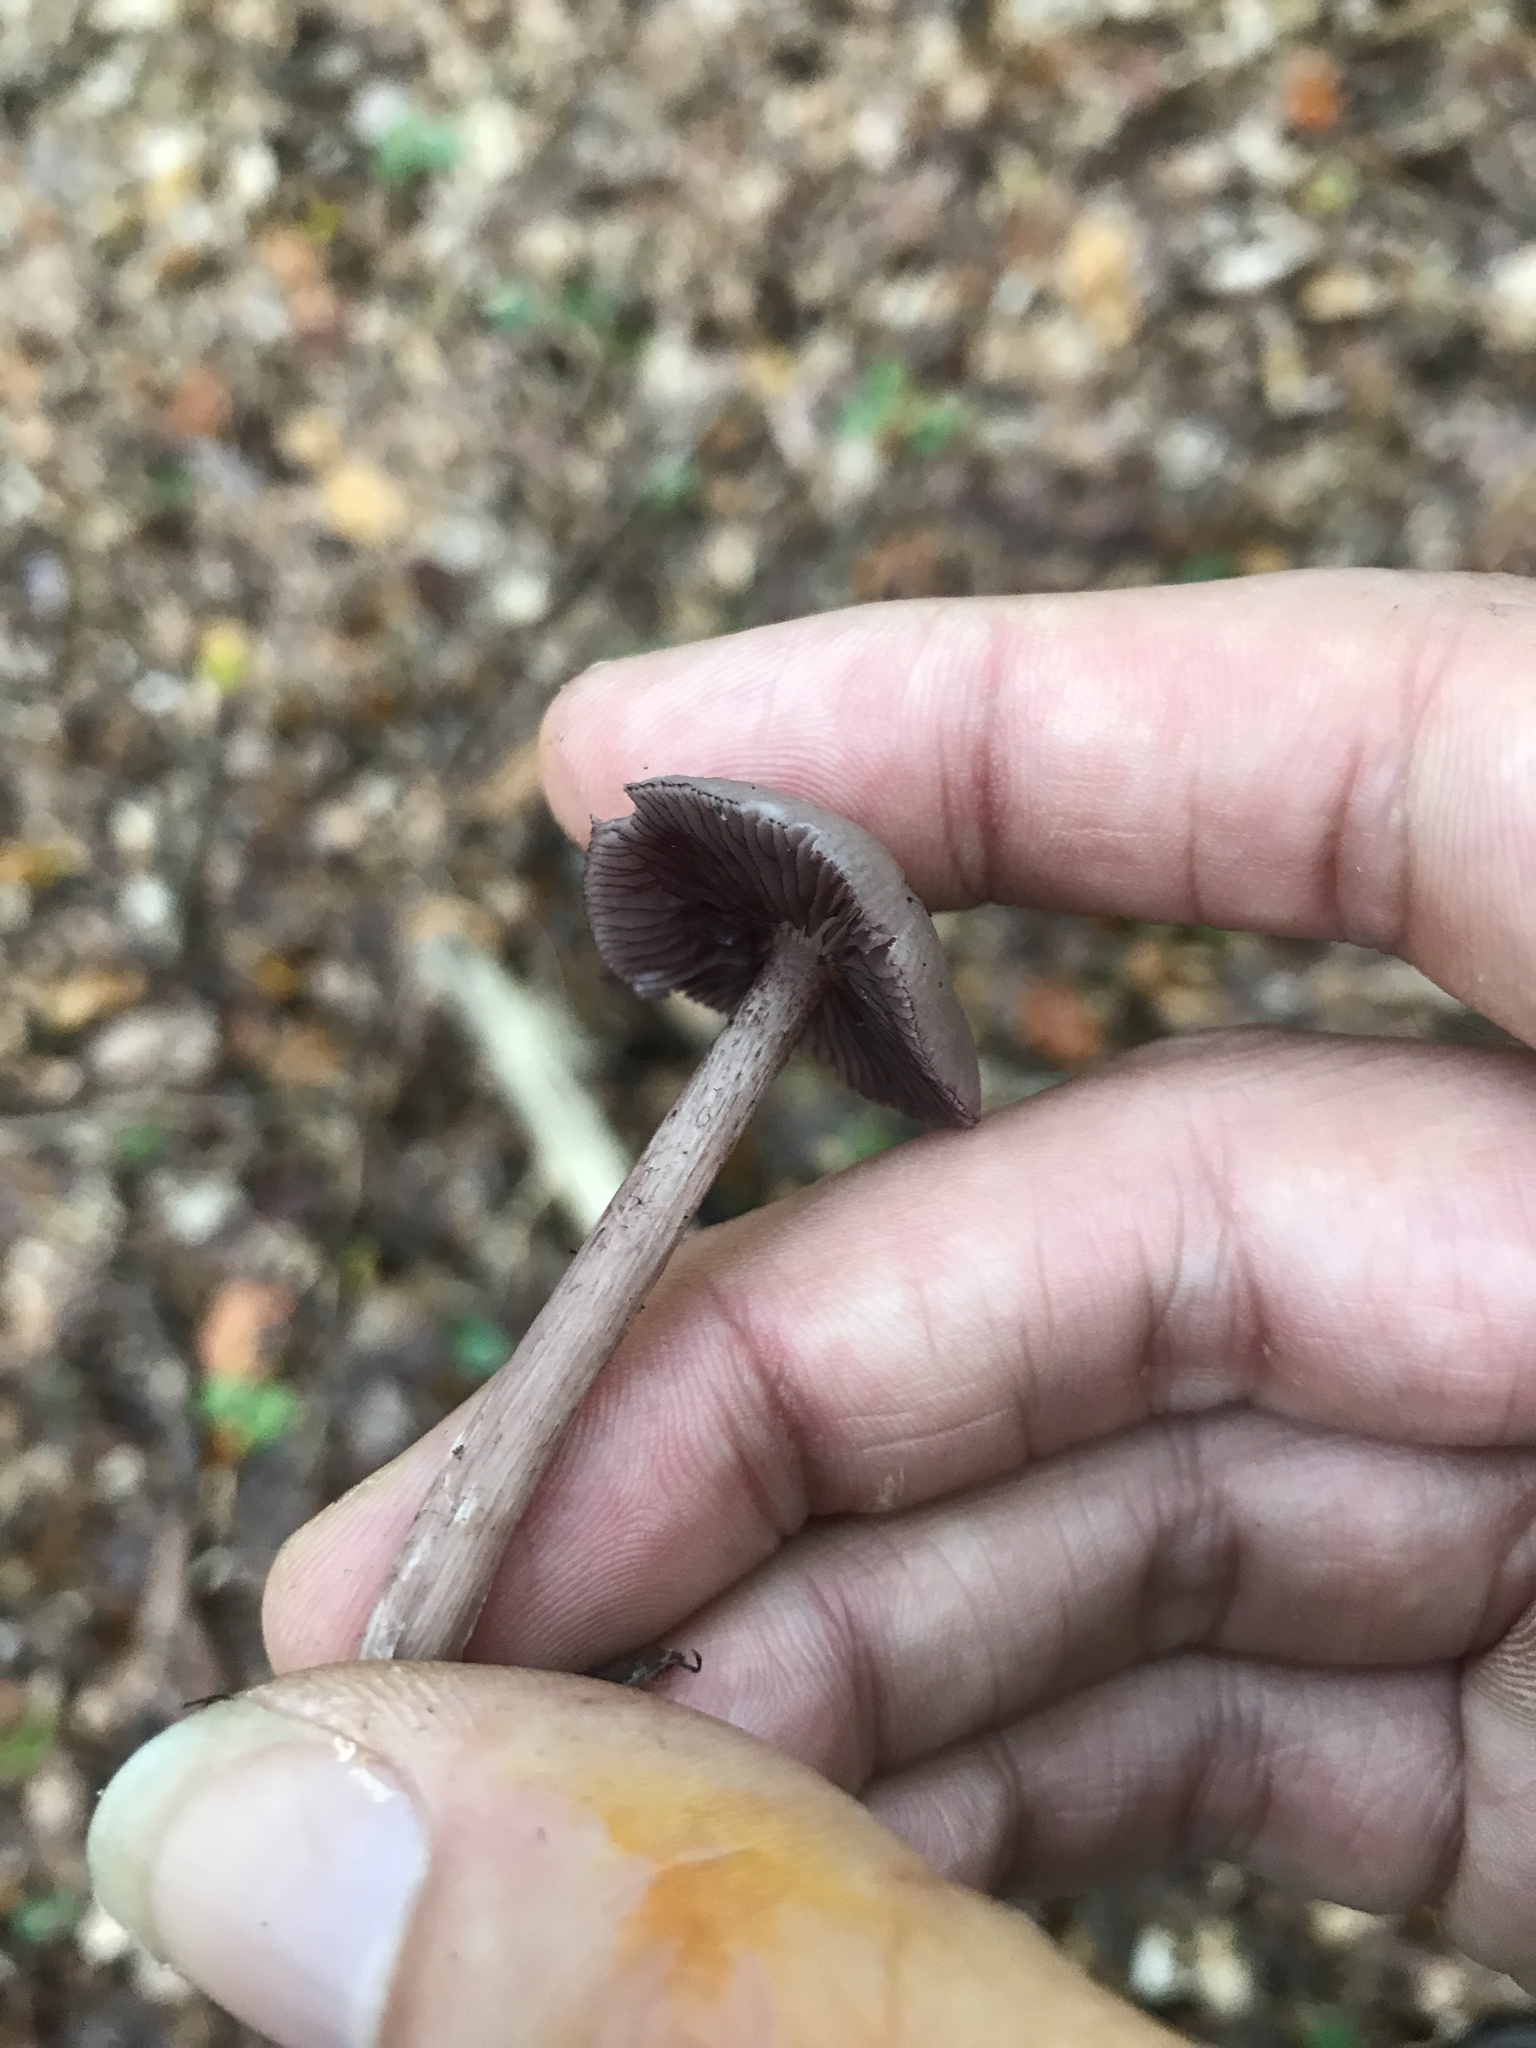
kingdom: Fungi
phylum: Basidiomycota
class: Agaricomycetes
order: Agaricales
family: Mycenaceae
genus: Mycena
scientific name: Mycena pelianthina
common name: Blackedge bonnet
